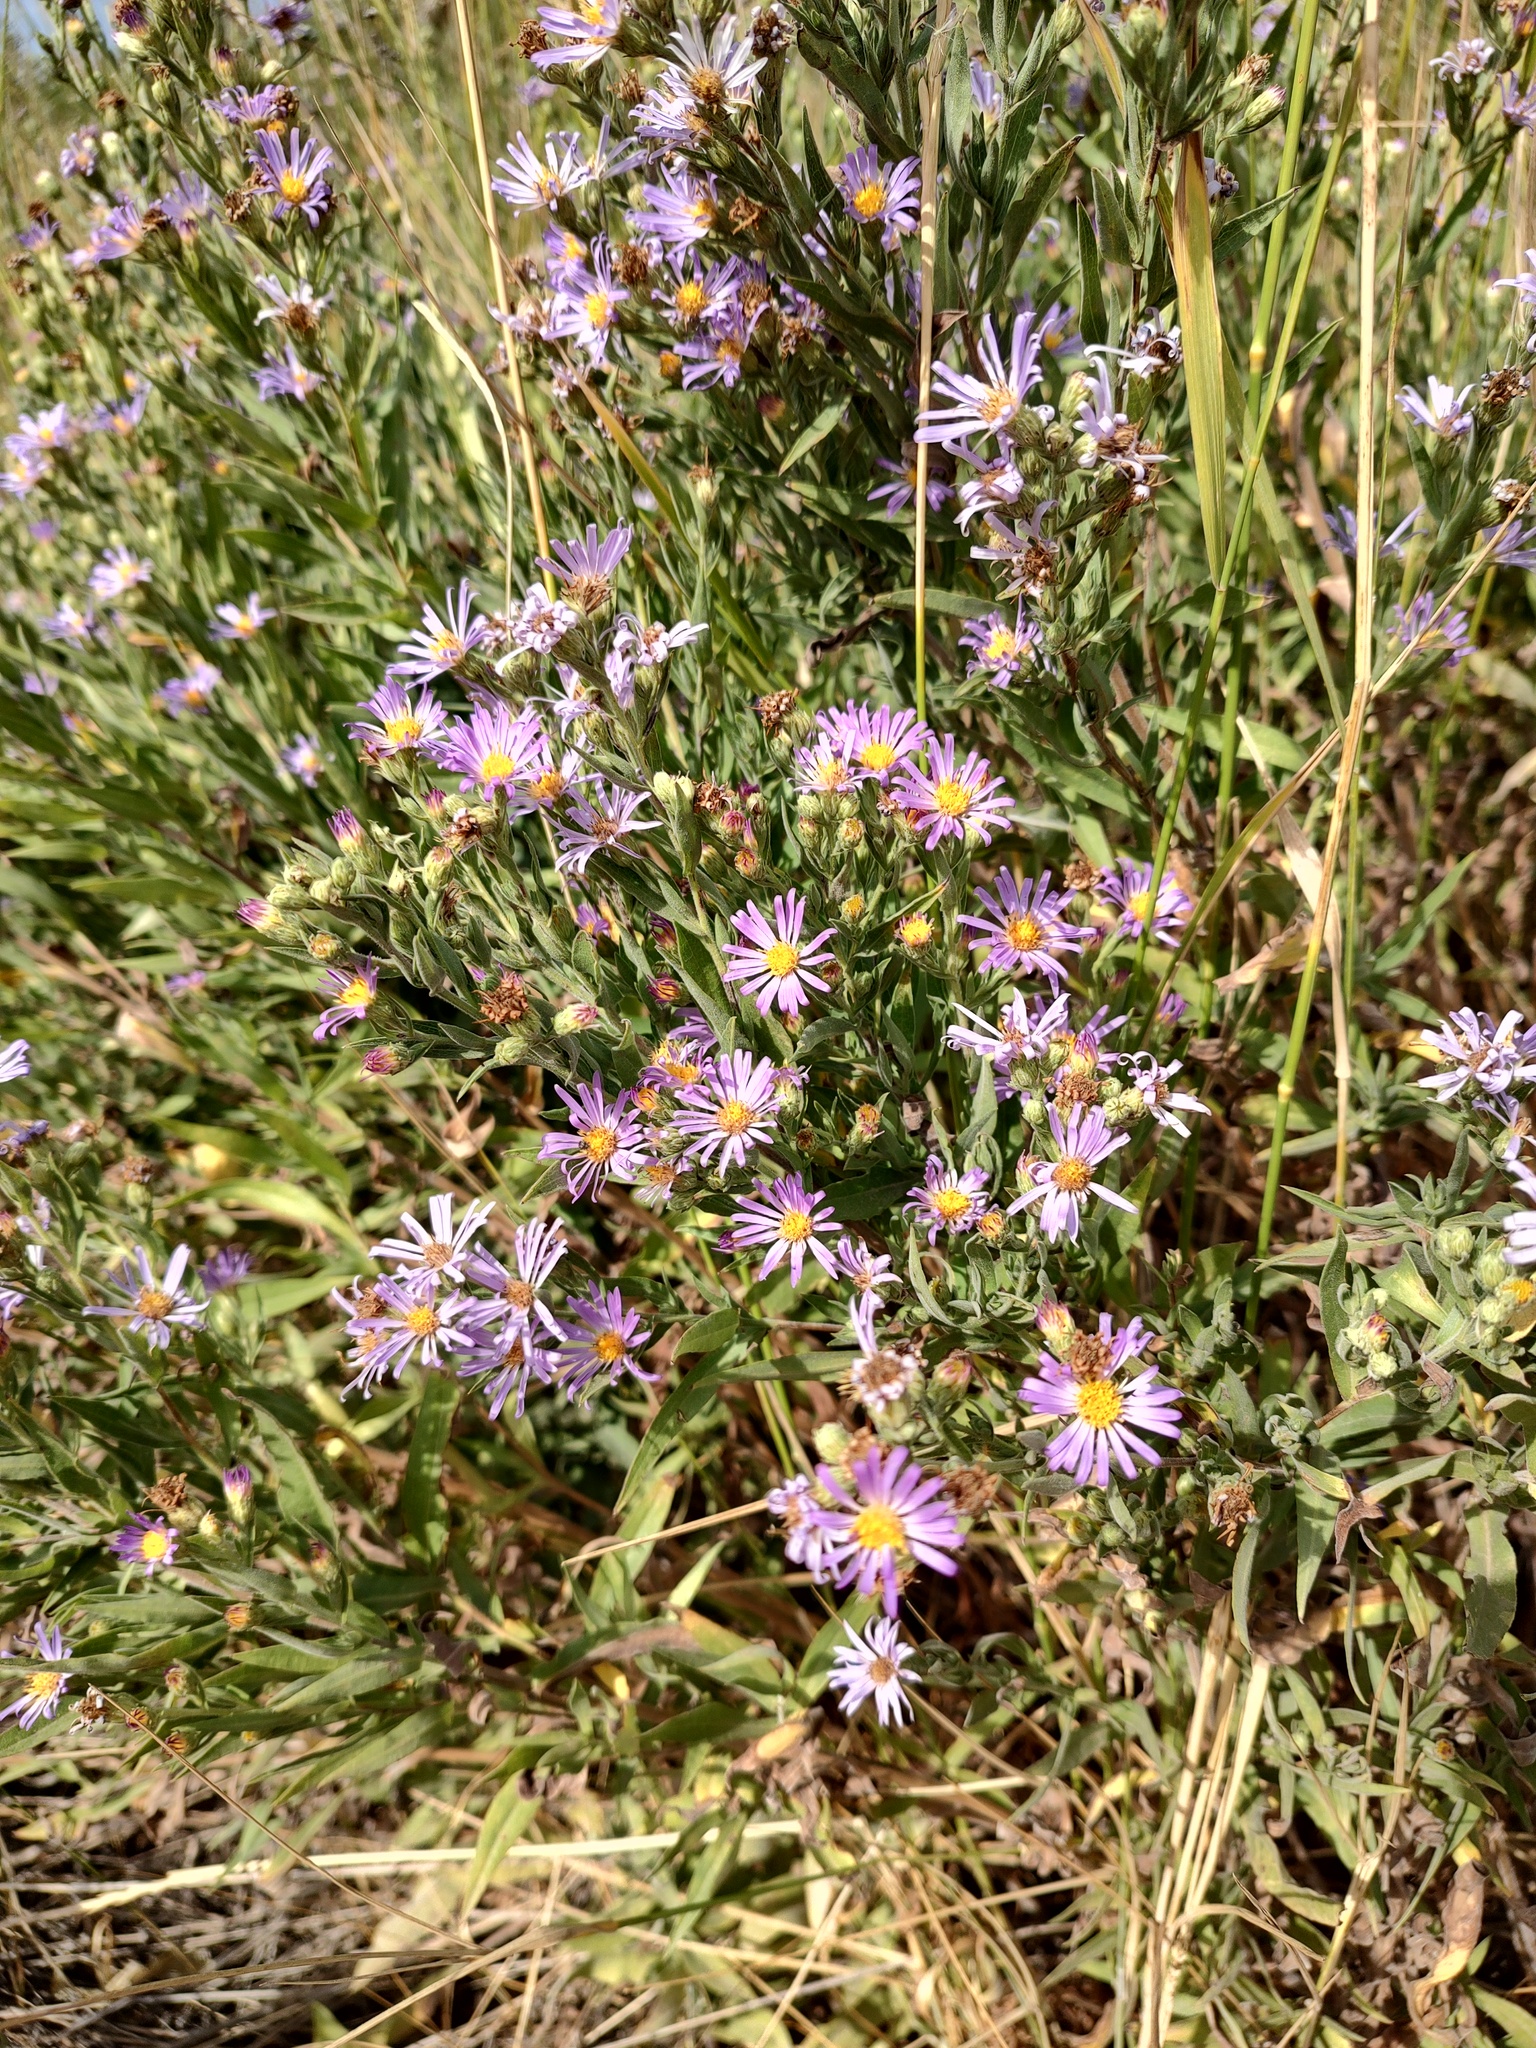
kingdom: Plantae
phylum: Tracheophyta
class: Magnoliopsida
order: Asterales
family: Asteraceae
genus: Symphyotrichum
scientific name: Symphyotrichum jessicae
